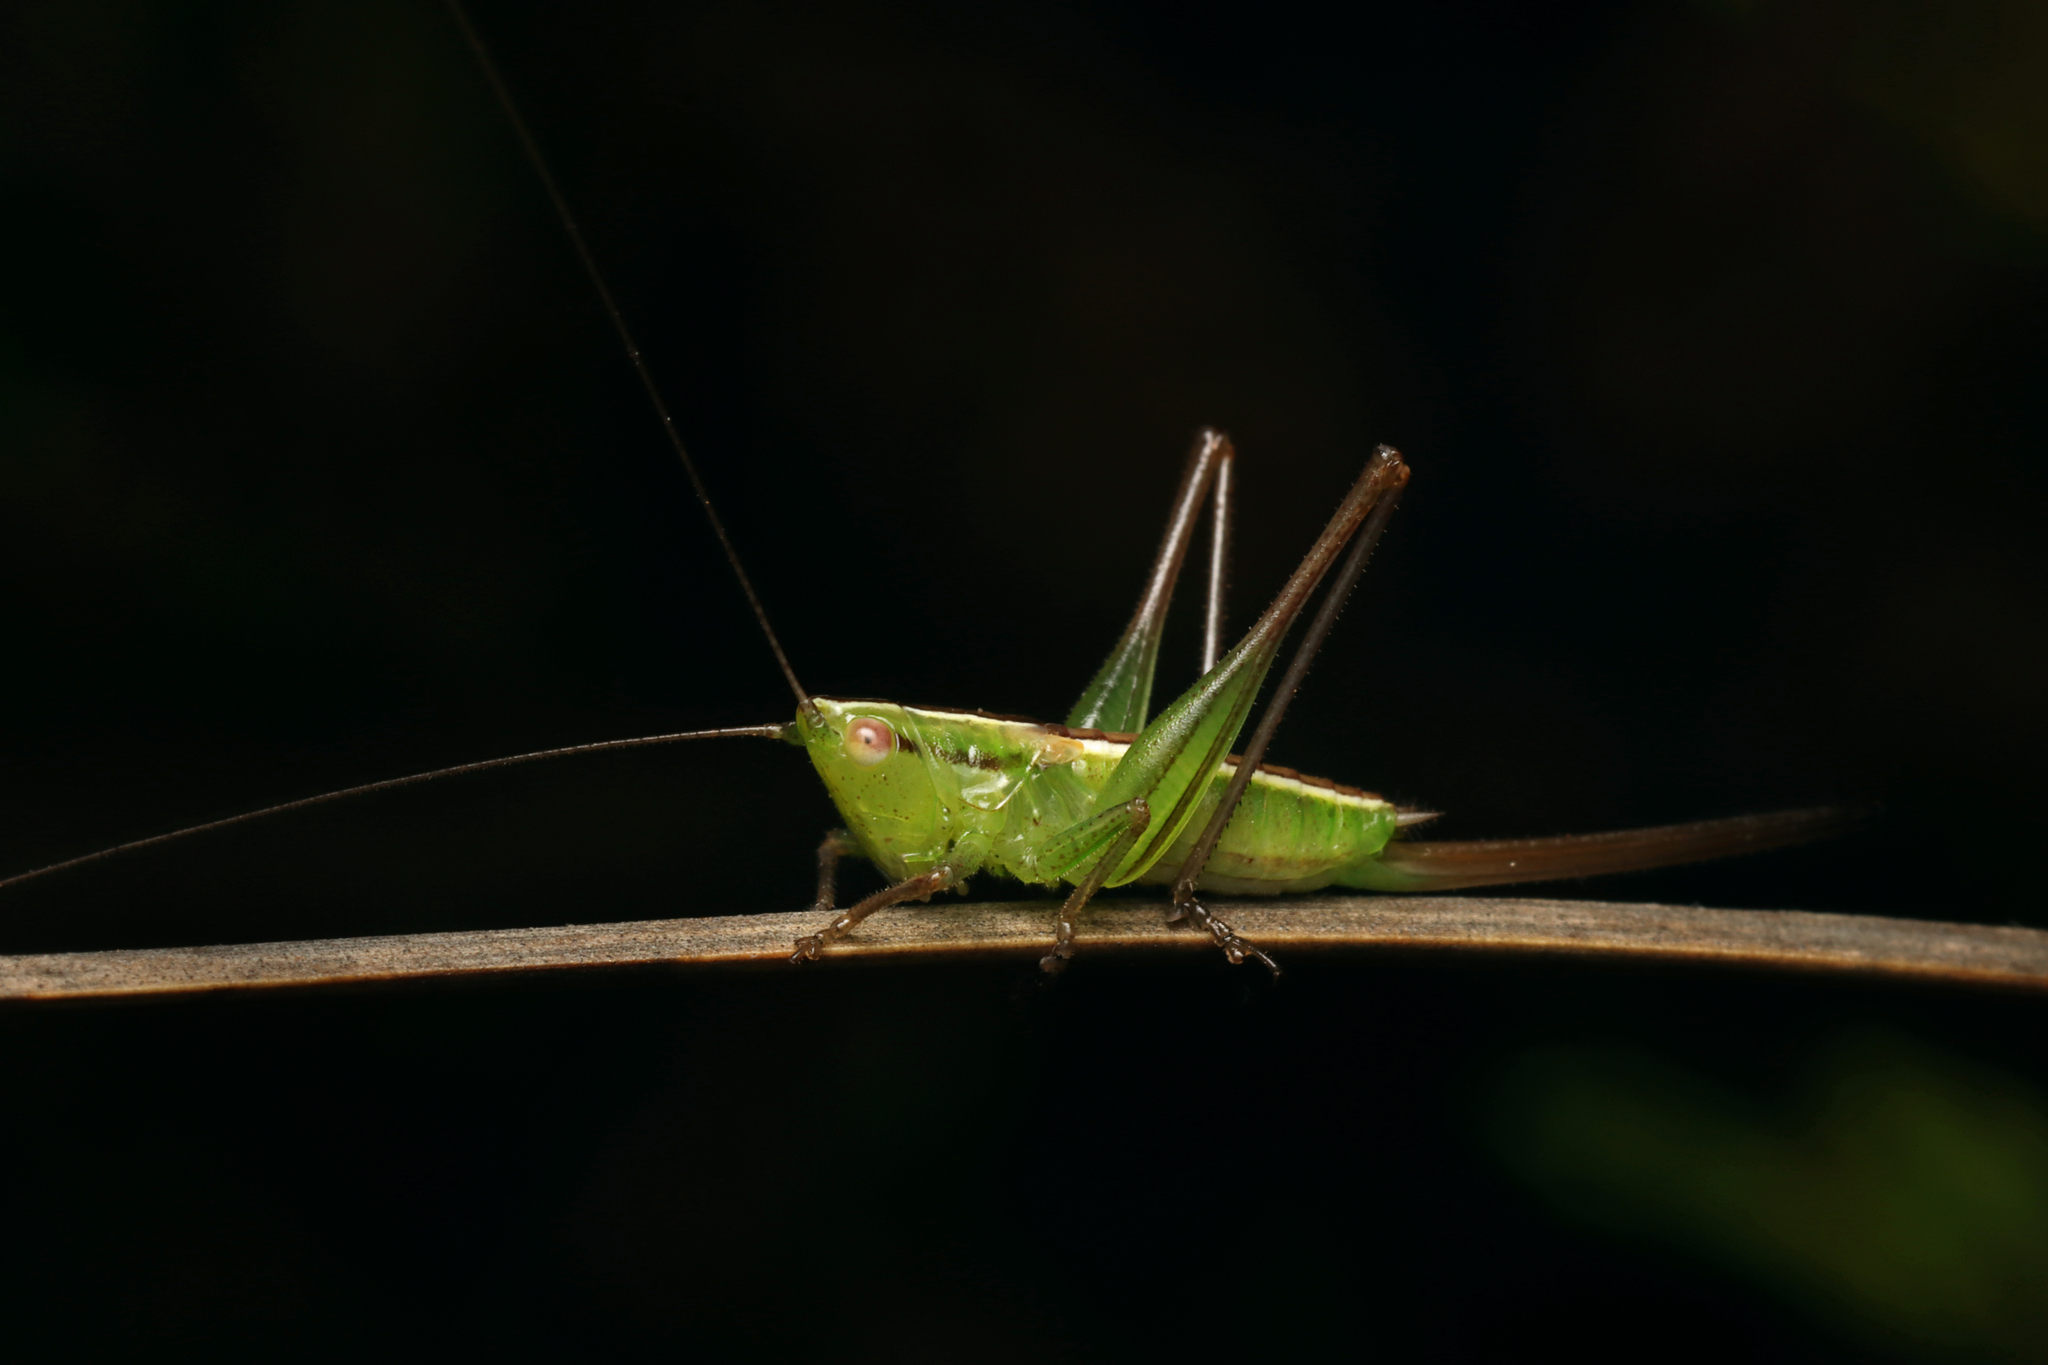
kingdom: Animalia
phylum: Arthropoda
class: Insecta
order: Orthoptera
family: Tettigoniidae
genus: Conocephalus
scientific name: Conocephalus albescens
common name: Whitish meadow katydid
